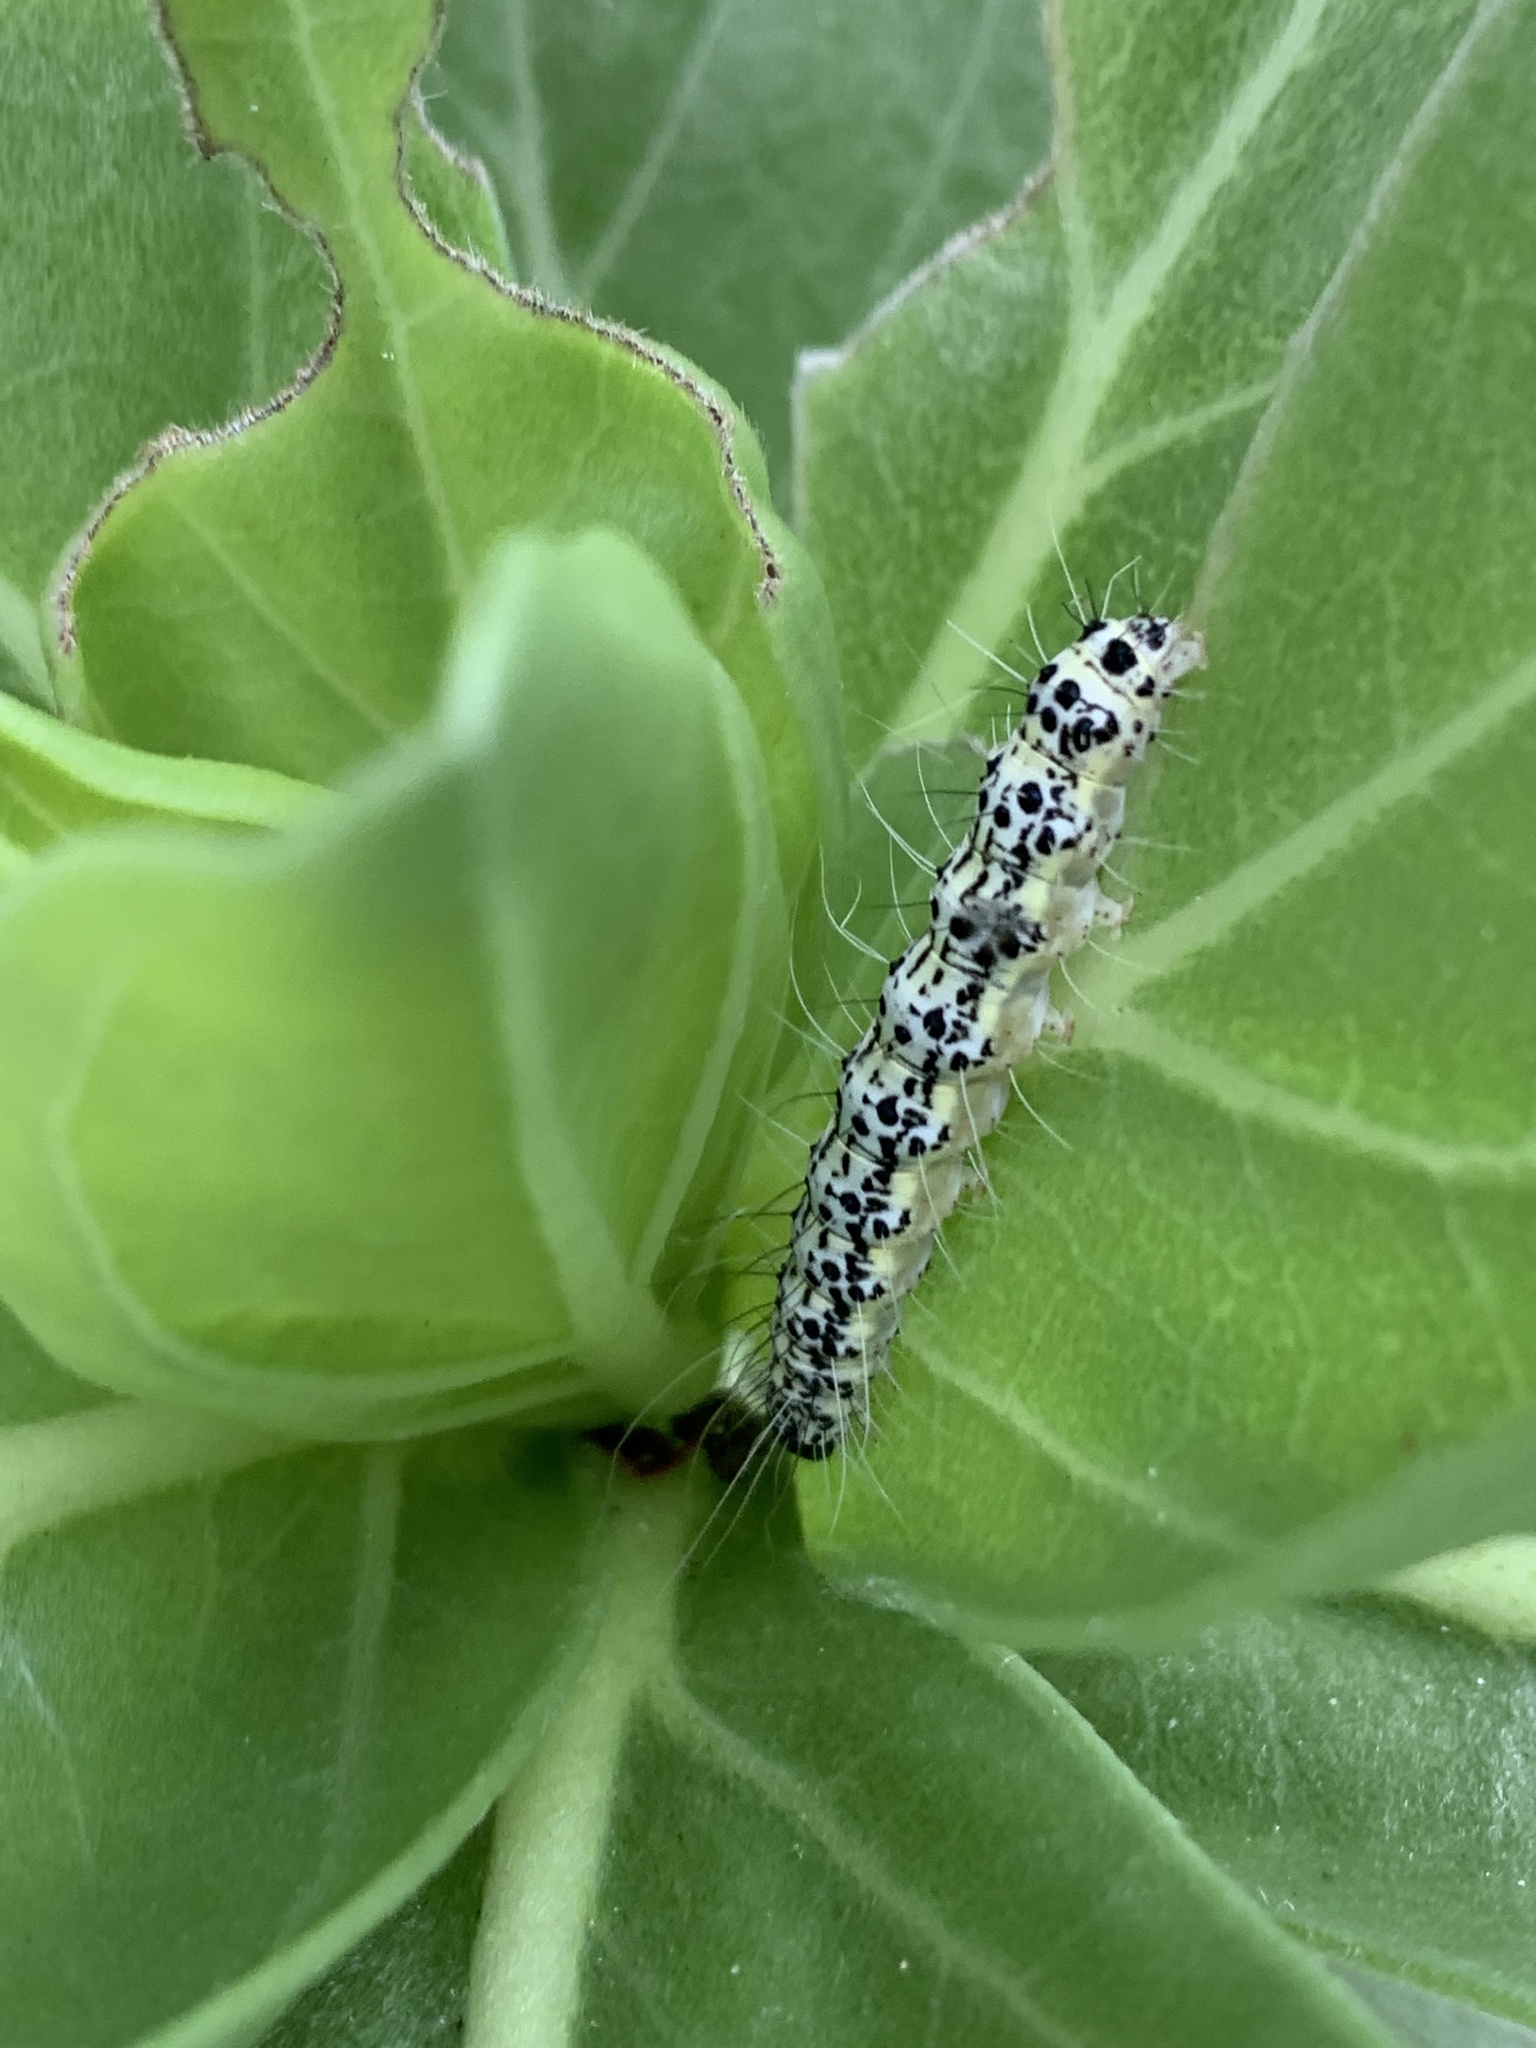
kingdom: Animalia
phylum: Arthropoda
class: Insecta
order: Lepidoptera
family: Erebidae
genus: Utetheisa
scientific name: Utetheisa inconstans
